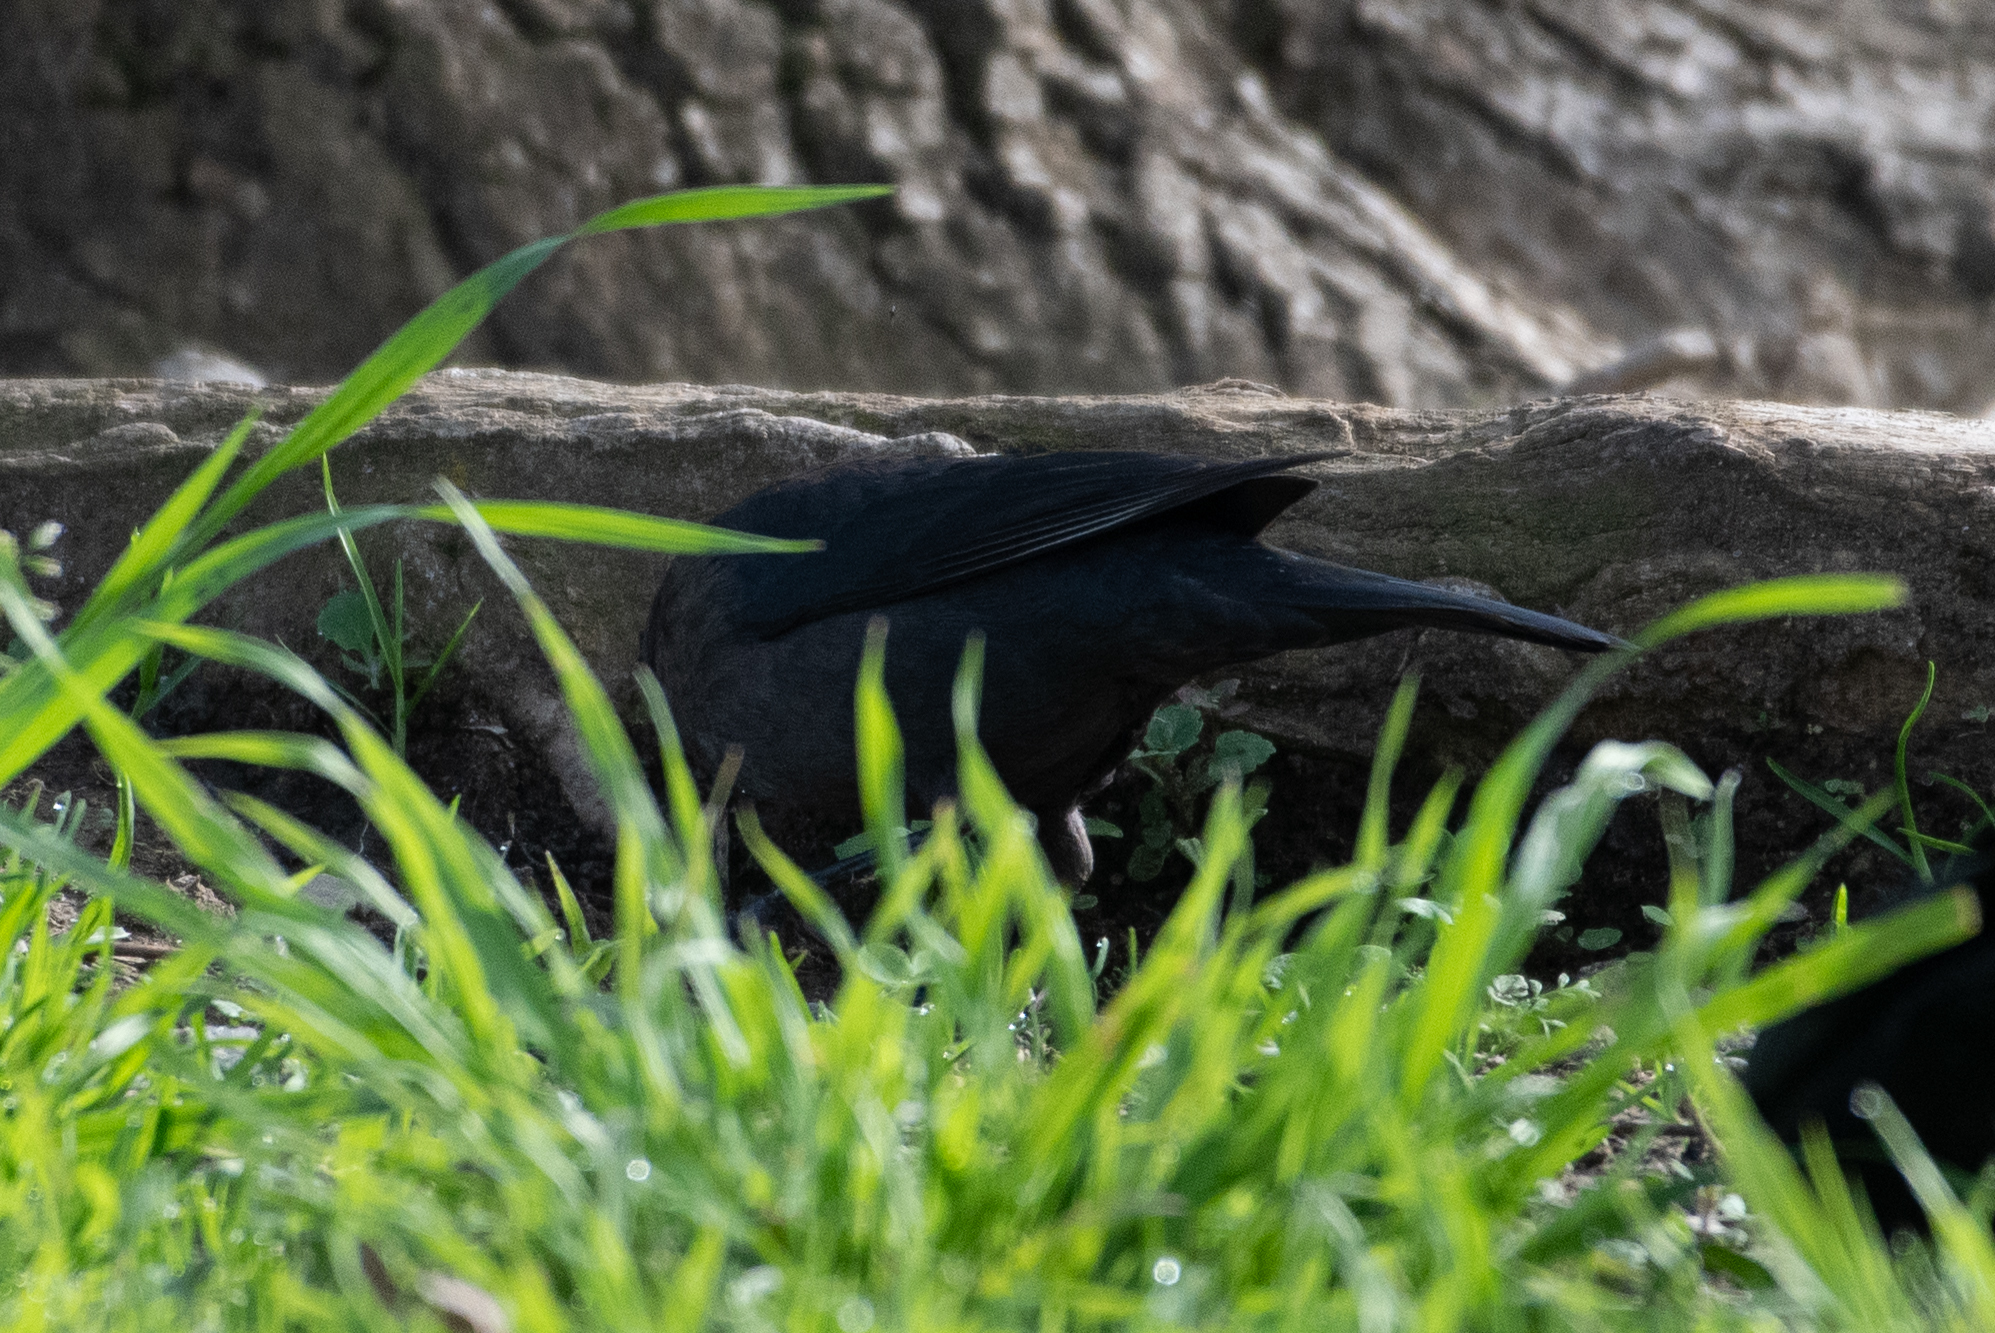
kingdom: Animalia
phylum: Chordata
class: Aves
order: Passeriformes
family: Icteridae
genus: Euphagus
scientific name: Euphagus cyanocephalus
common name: Brewer's blackbird
